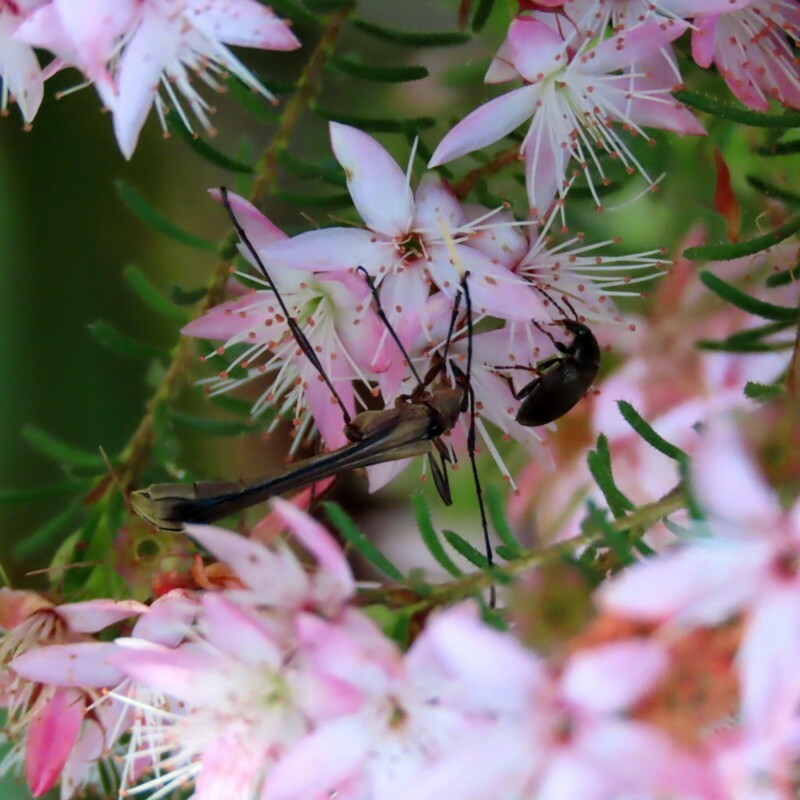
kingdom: Animalia
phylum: Arthropoda
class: Insecta
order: Coleoptera
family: Cerambycidae
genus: Enchoptera
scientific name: Enchoptera apicalis
